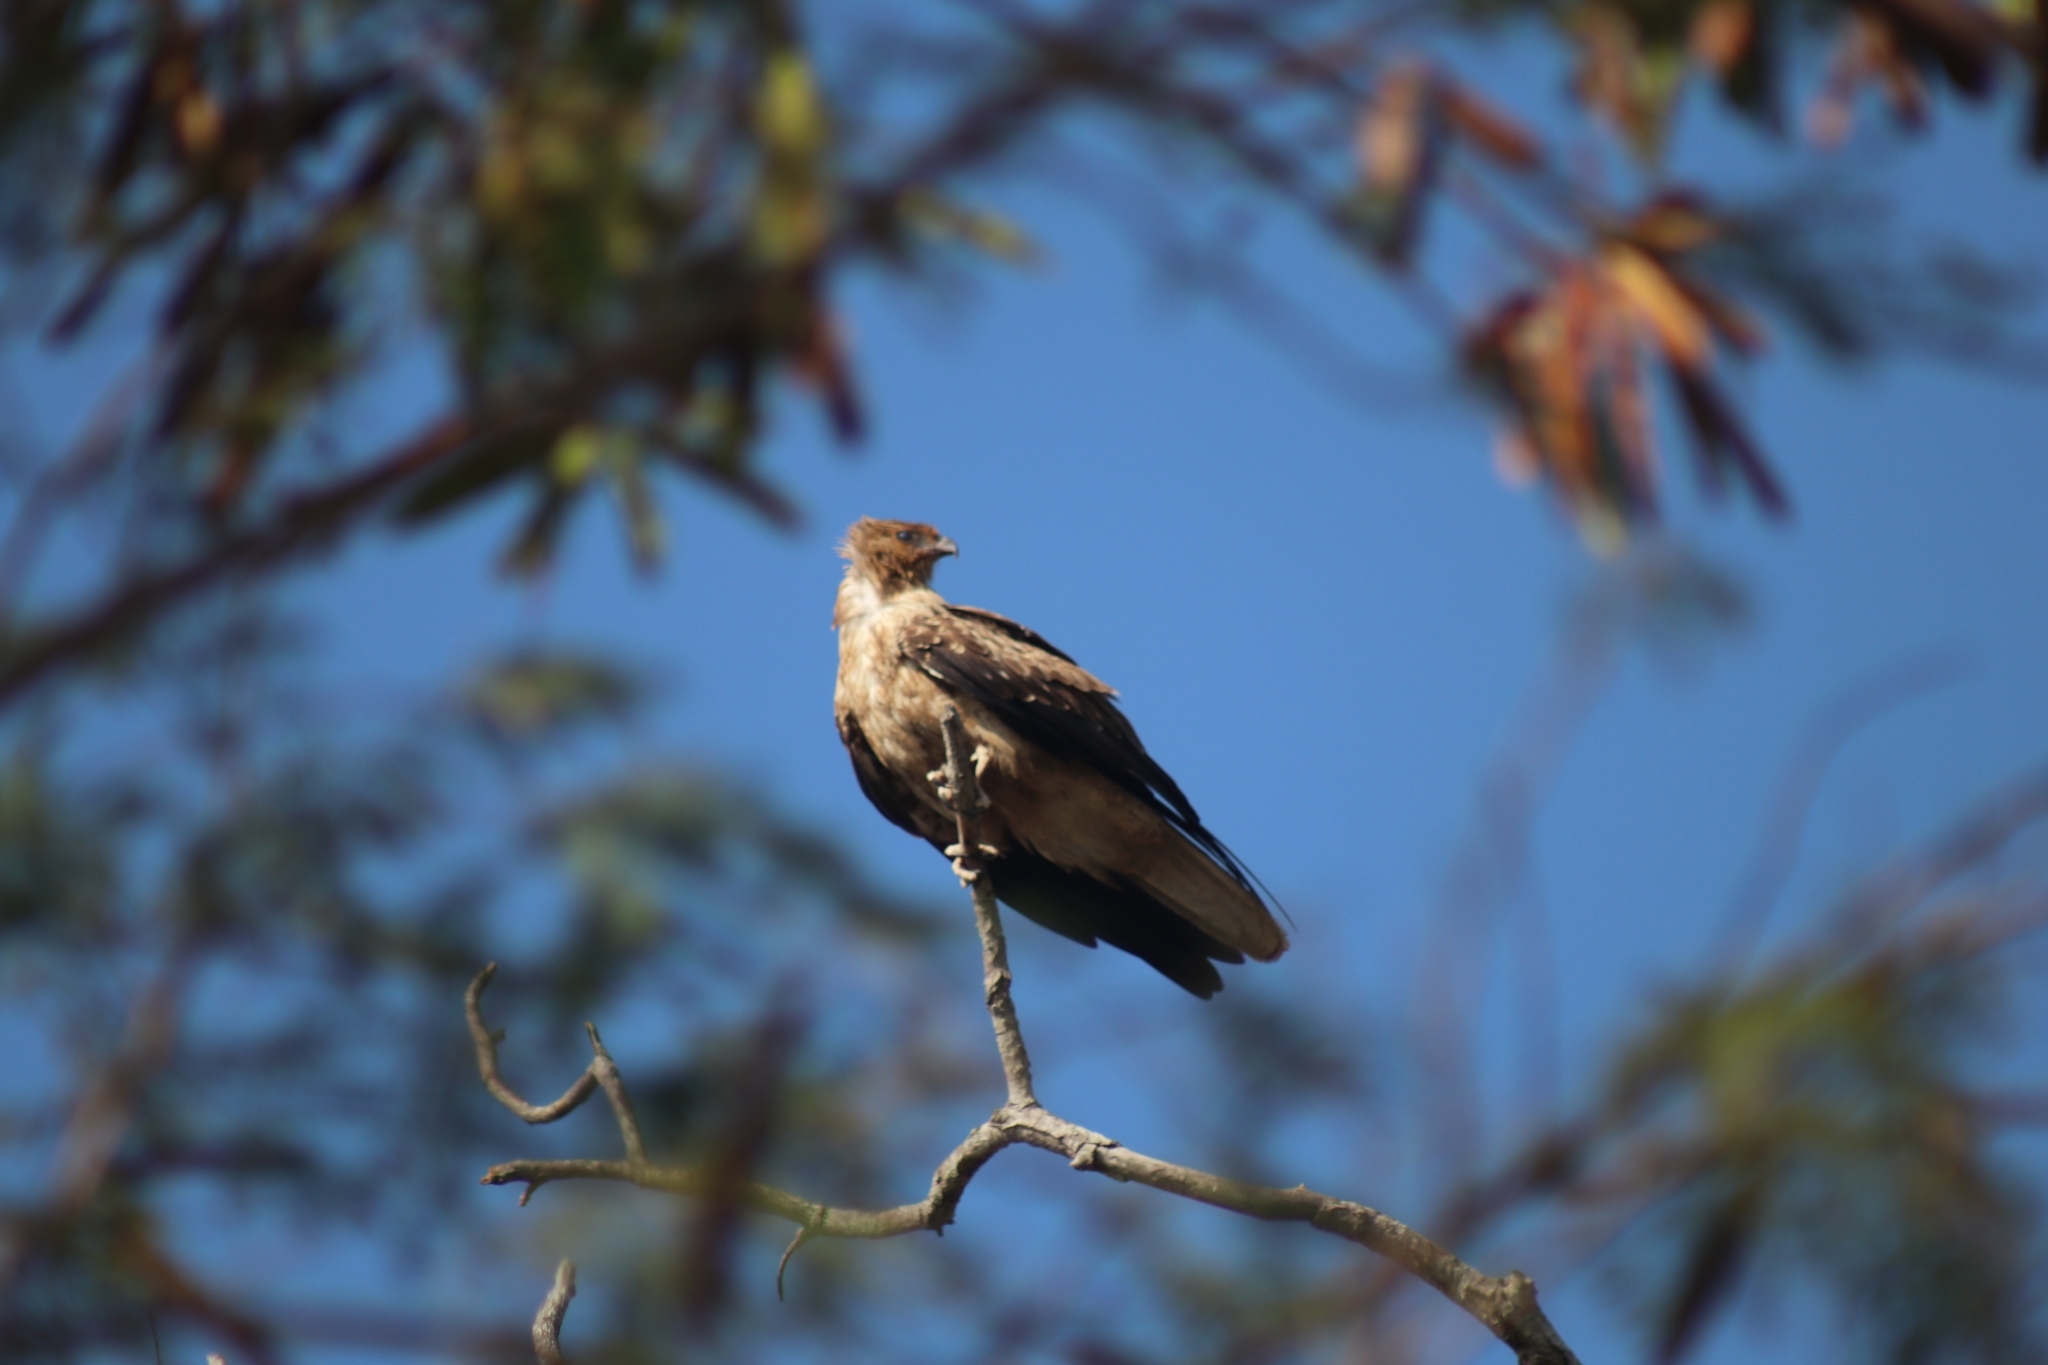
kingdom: Animalia
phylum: Chordata
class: Aves
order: Accipitriformes
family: Accipitridae
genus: Haliastur
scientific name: Haliastur sphenurus
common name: Whistling kite
